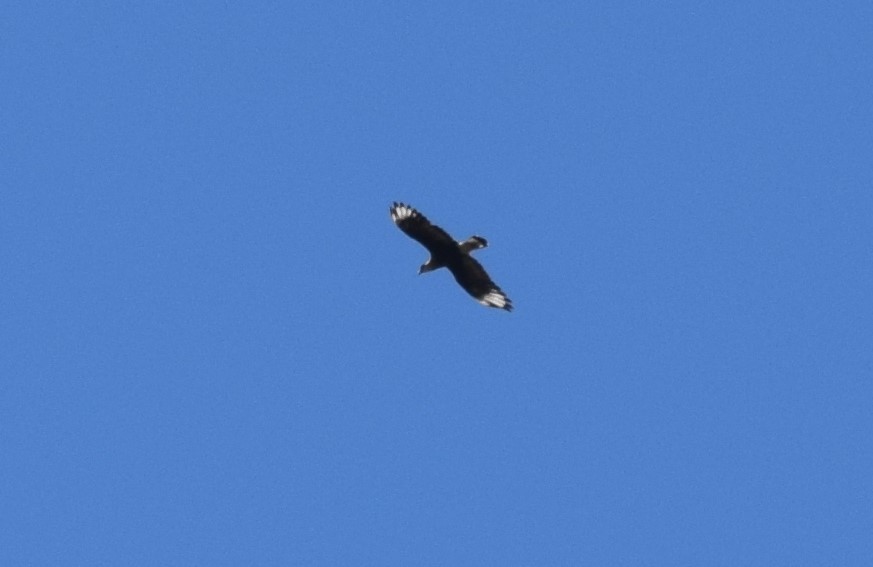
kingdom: Animalia
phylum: Chordata
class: Aves
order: Falconiformes
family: Falconidae
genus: Caracara
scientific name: Caracara plancus
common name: Southern caracara
